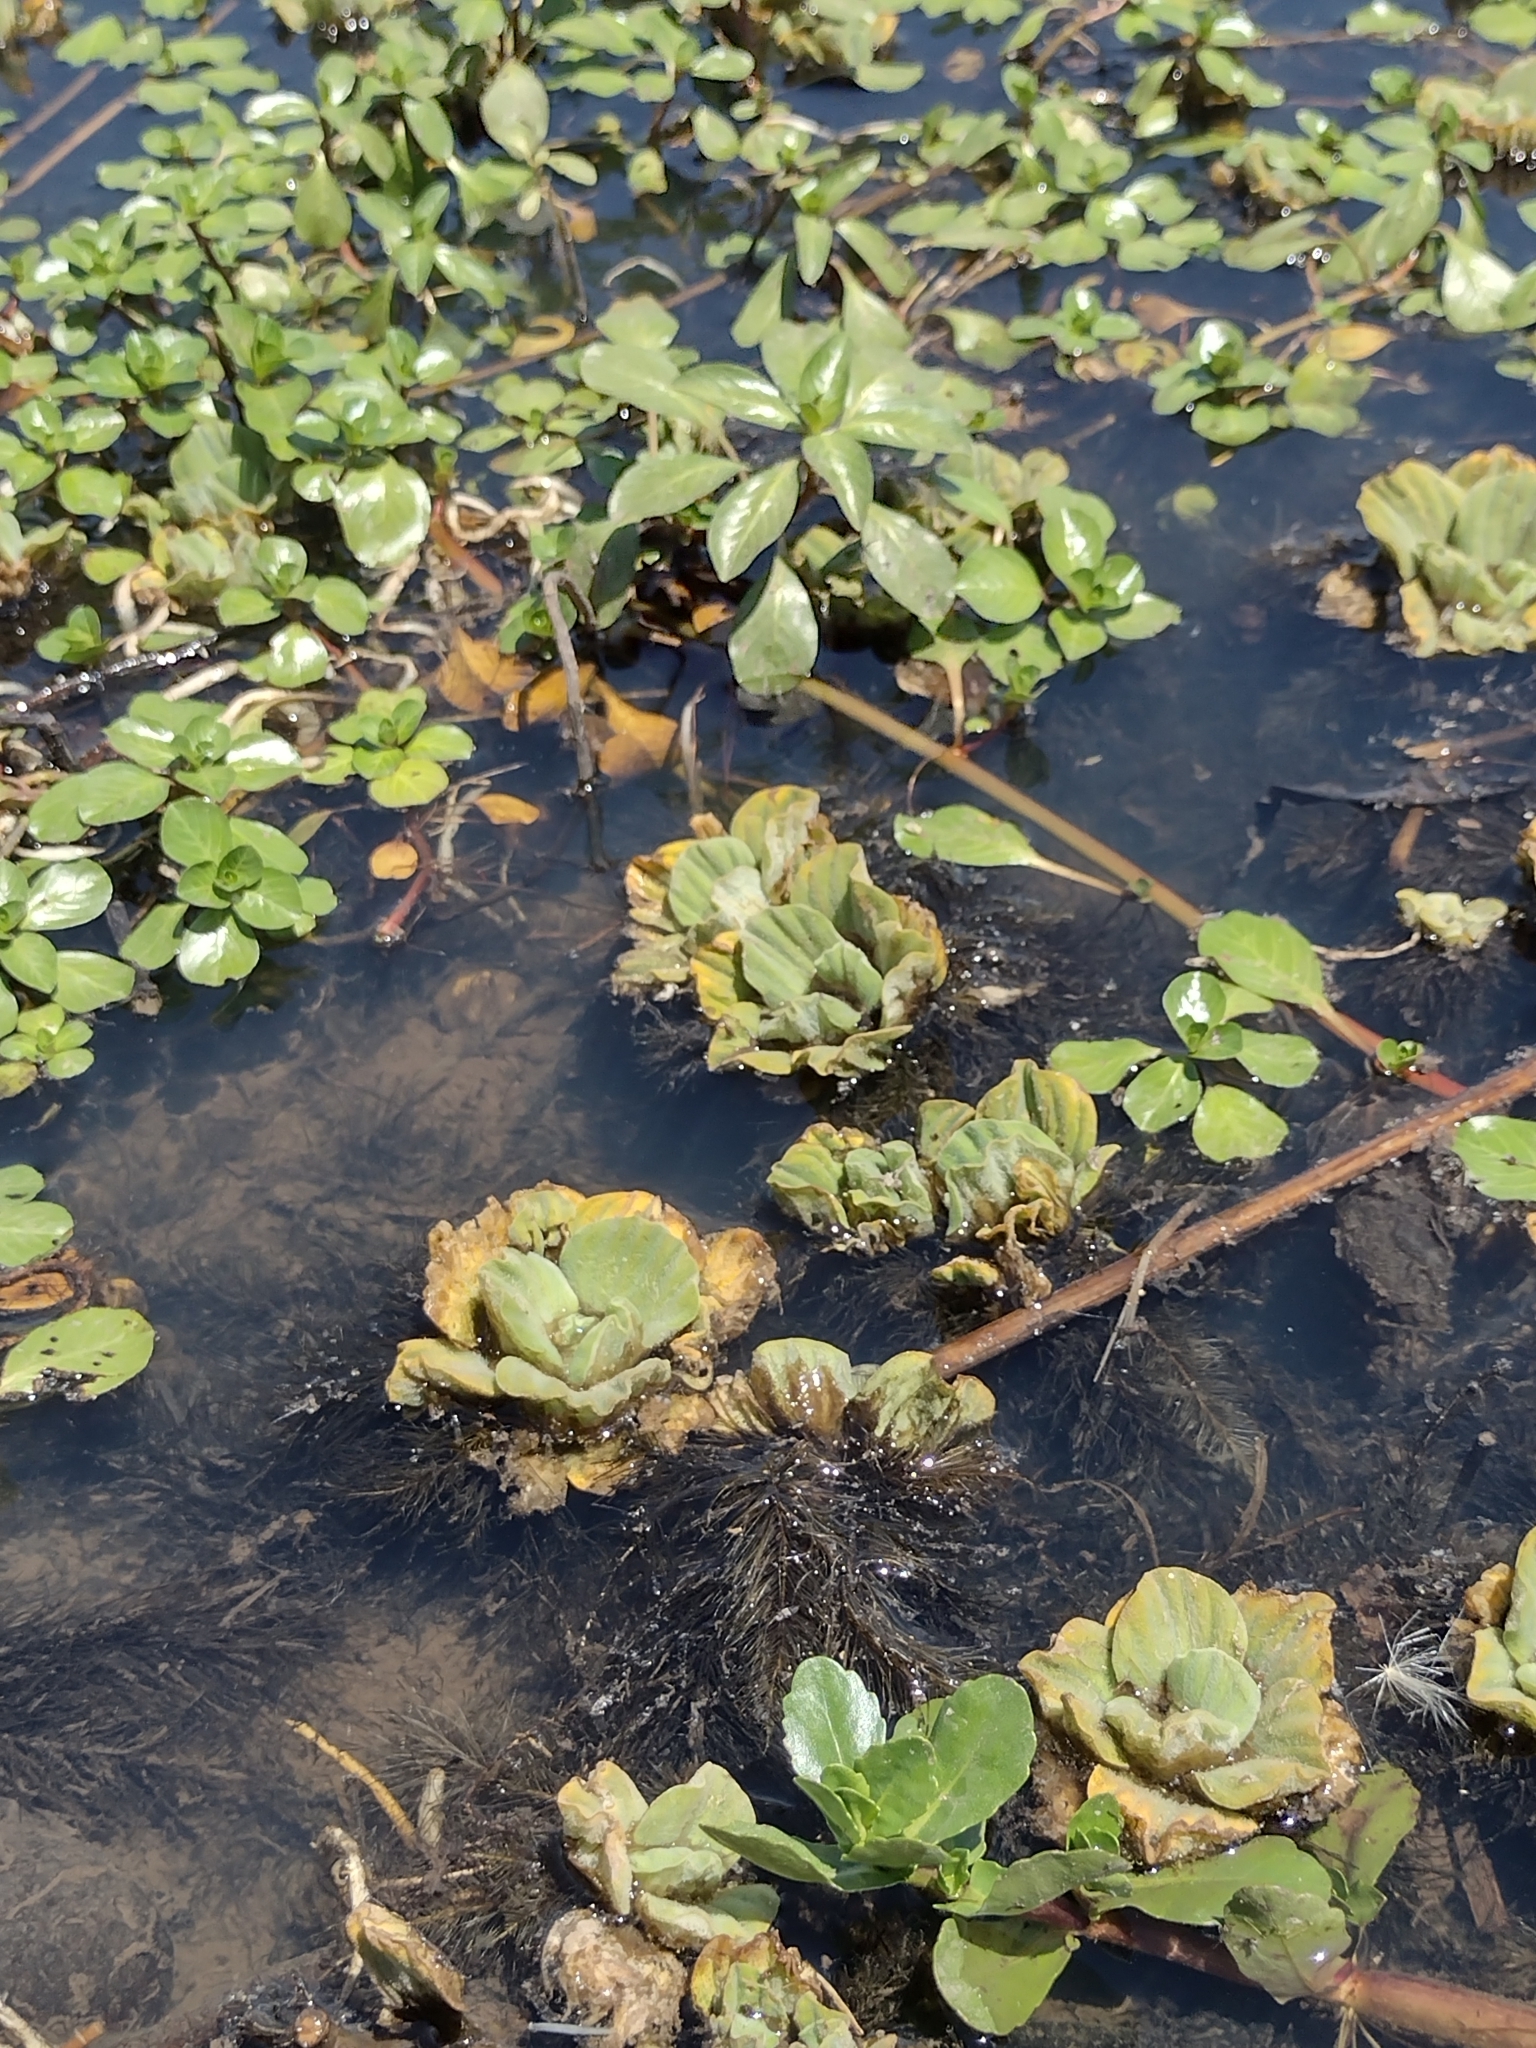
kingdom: Plantae
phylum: Tracheophyta
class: Liliopsida
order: Alismatales
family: Araceae
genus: Pistia
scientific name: Pistia stratiotes
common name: Water lettuce
